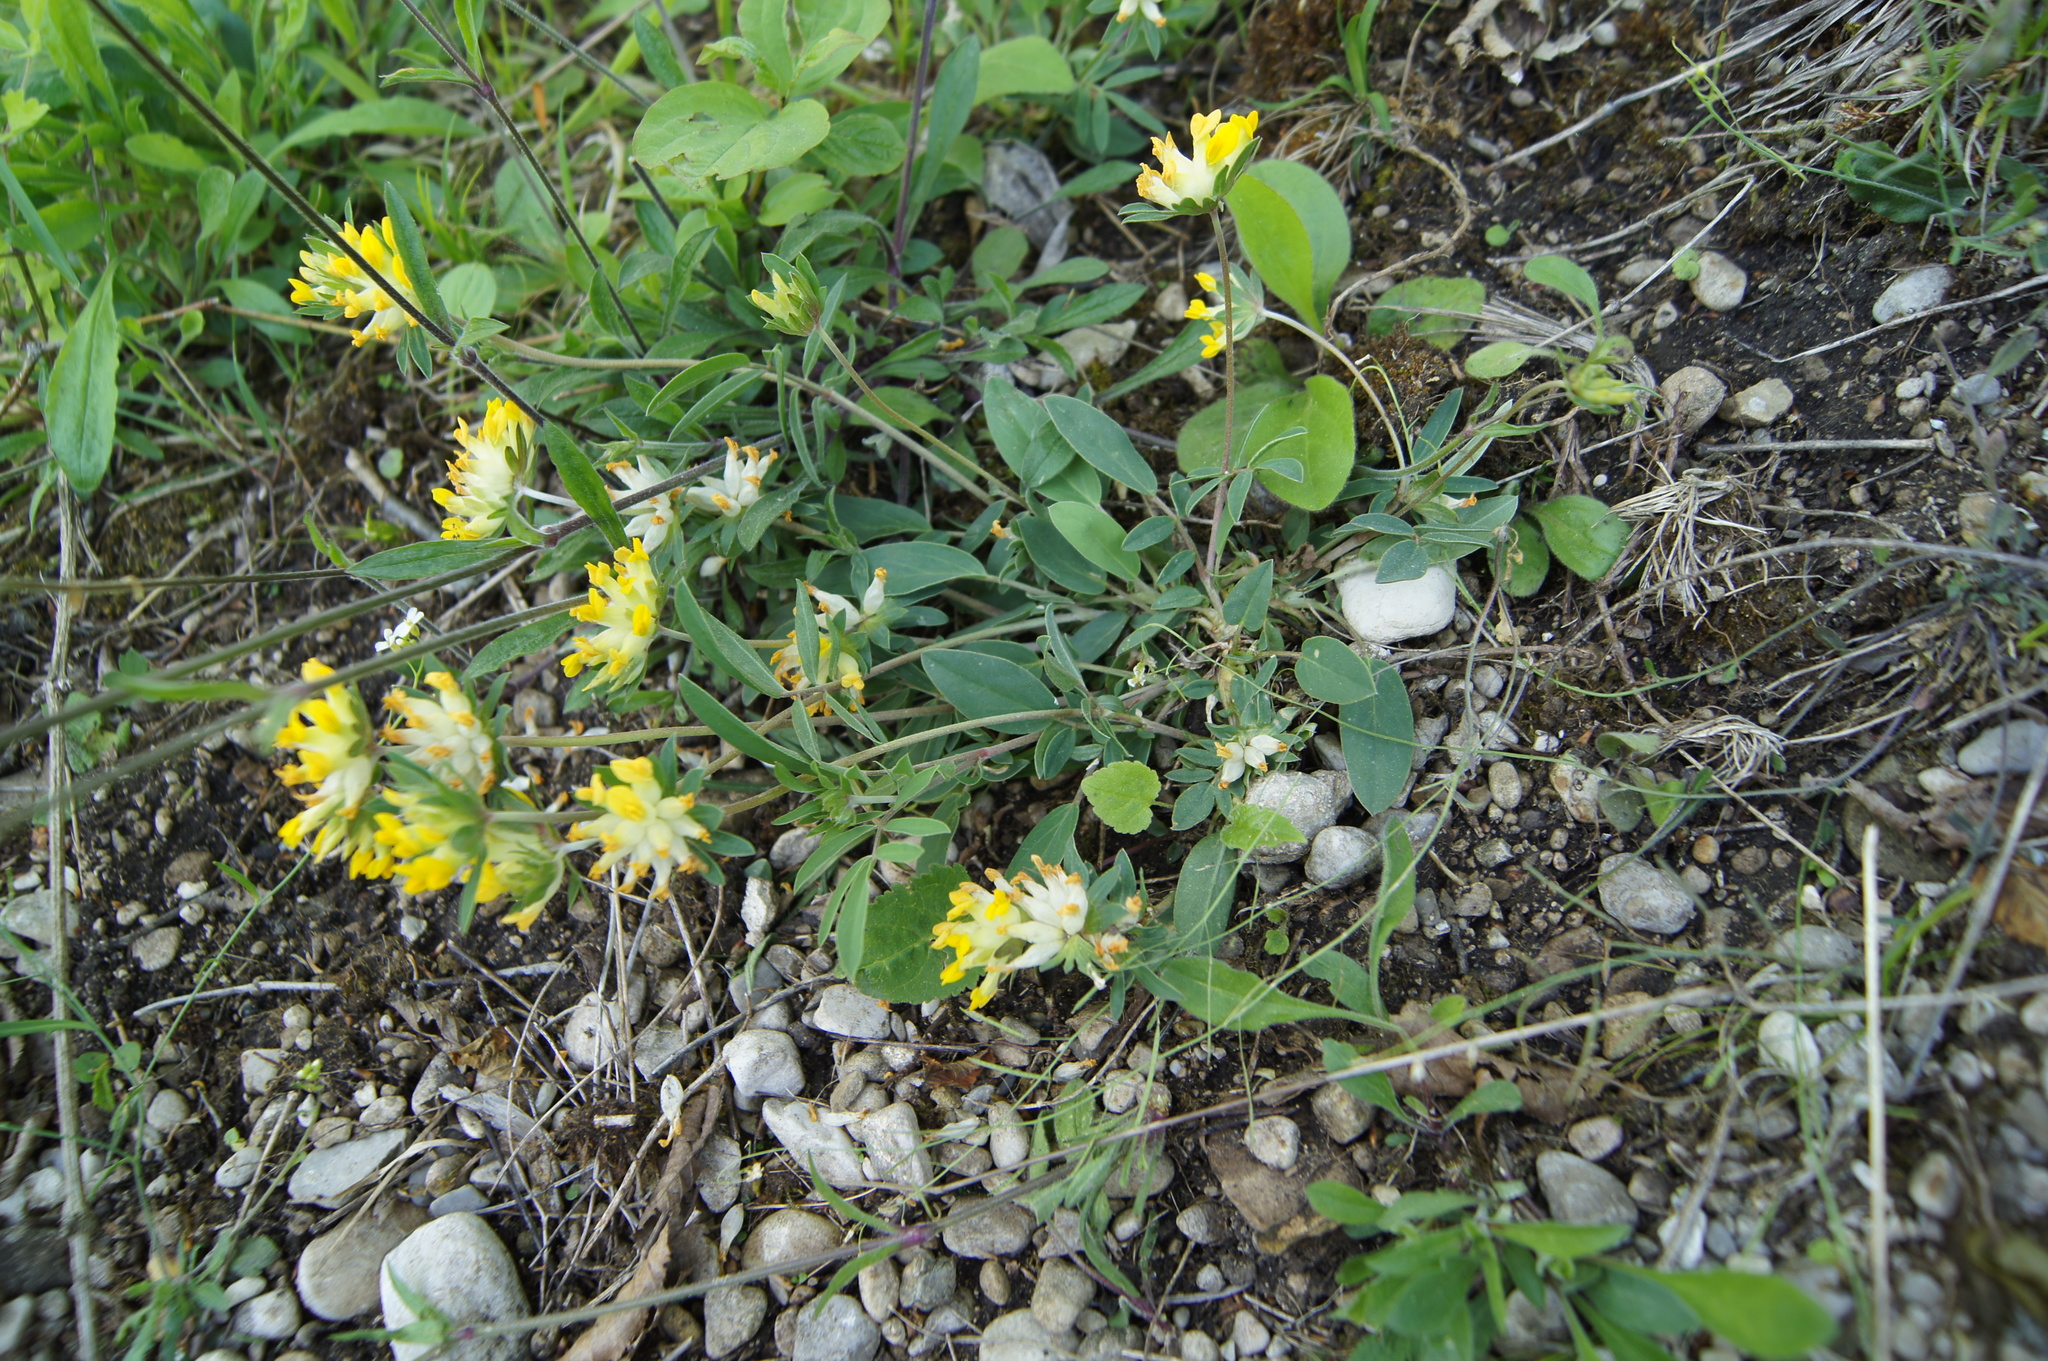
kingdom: Plantae
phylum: Tracheophyta
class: Magnoliopsida
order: Fabales
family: Fabaceae
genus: Anthyllis
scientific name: Anthyllis vulneraria
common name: Kidney vetch
